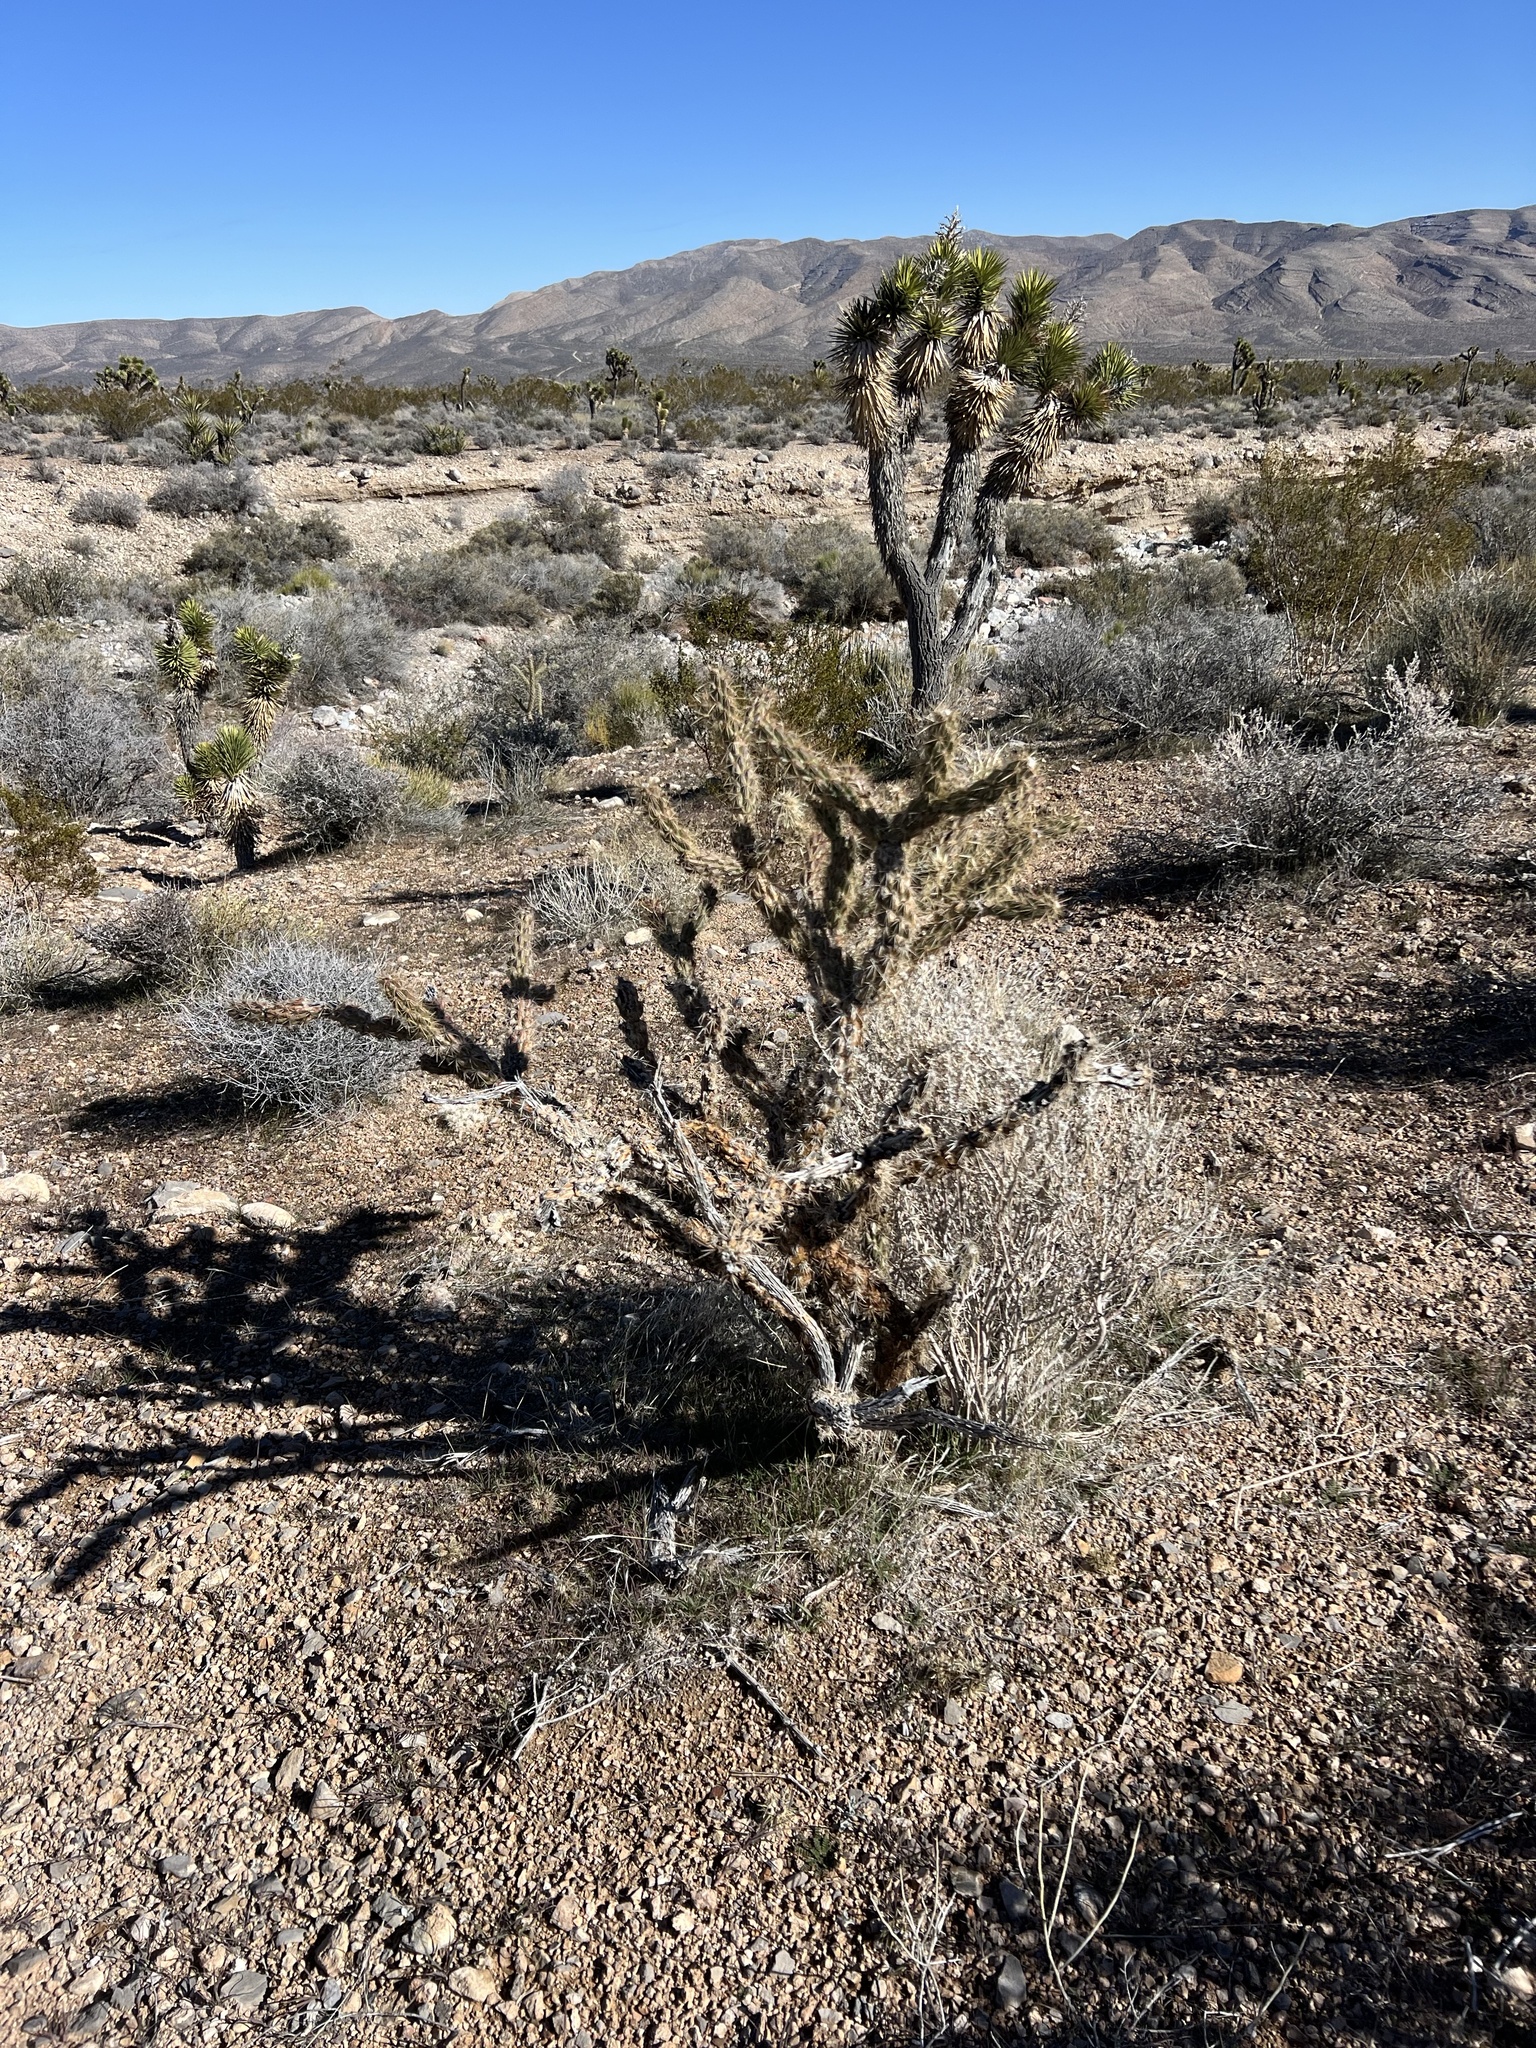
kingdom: Plantae
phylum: Tracheophyta
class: Magnoliopsida
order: Caryophyllales
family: Cactaceae
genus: Cylindropuntia
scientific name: Cylindropuntia acanthocarpa
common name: Buckhorn cholla
